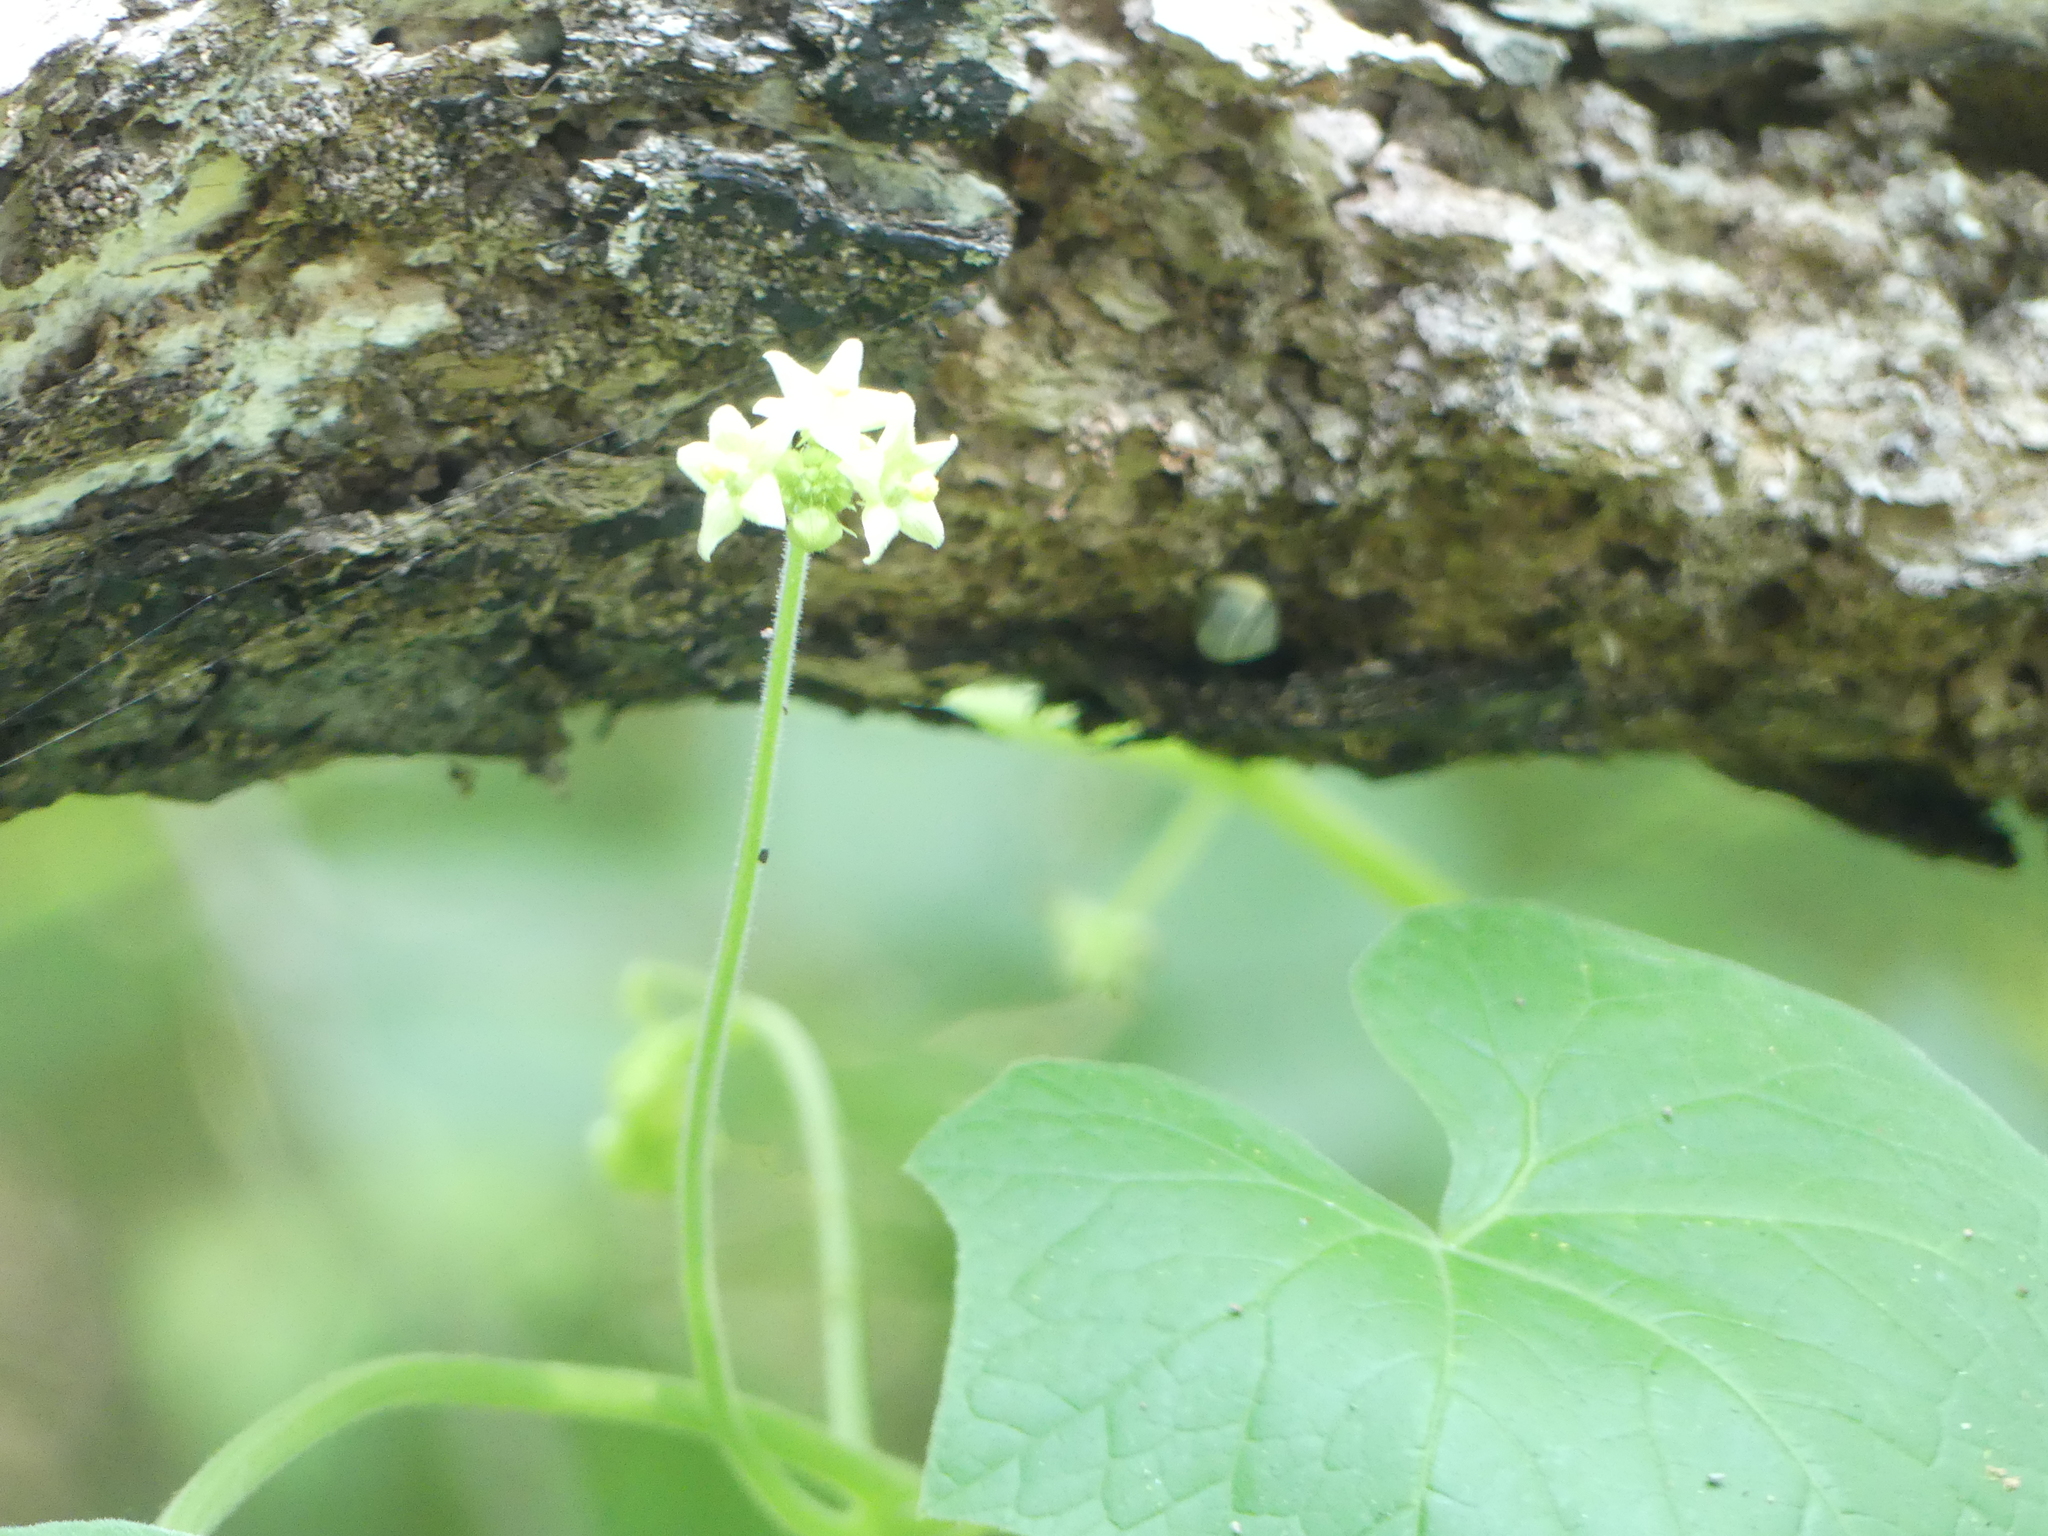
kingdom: Plantae
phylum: Tracheophyta
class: Magnoliopsida
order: Cucurbitales
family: Cucurbitaceae
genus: Sicyos
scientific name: Sicyos angulatus
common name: Angled burr cucumber
